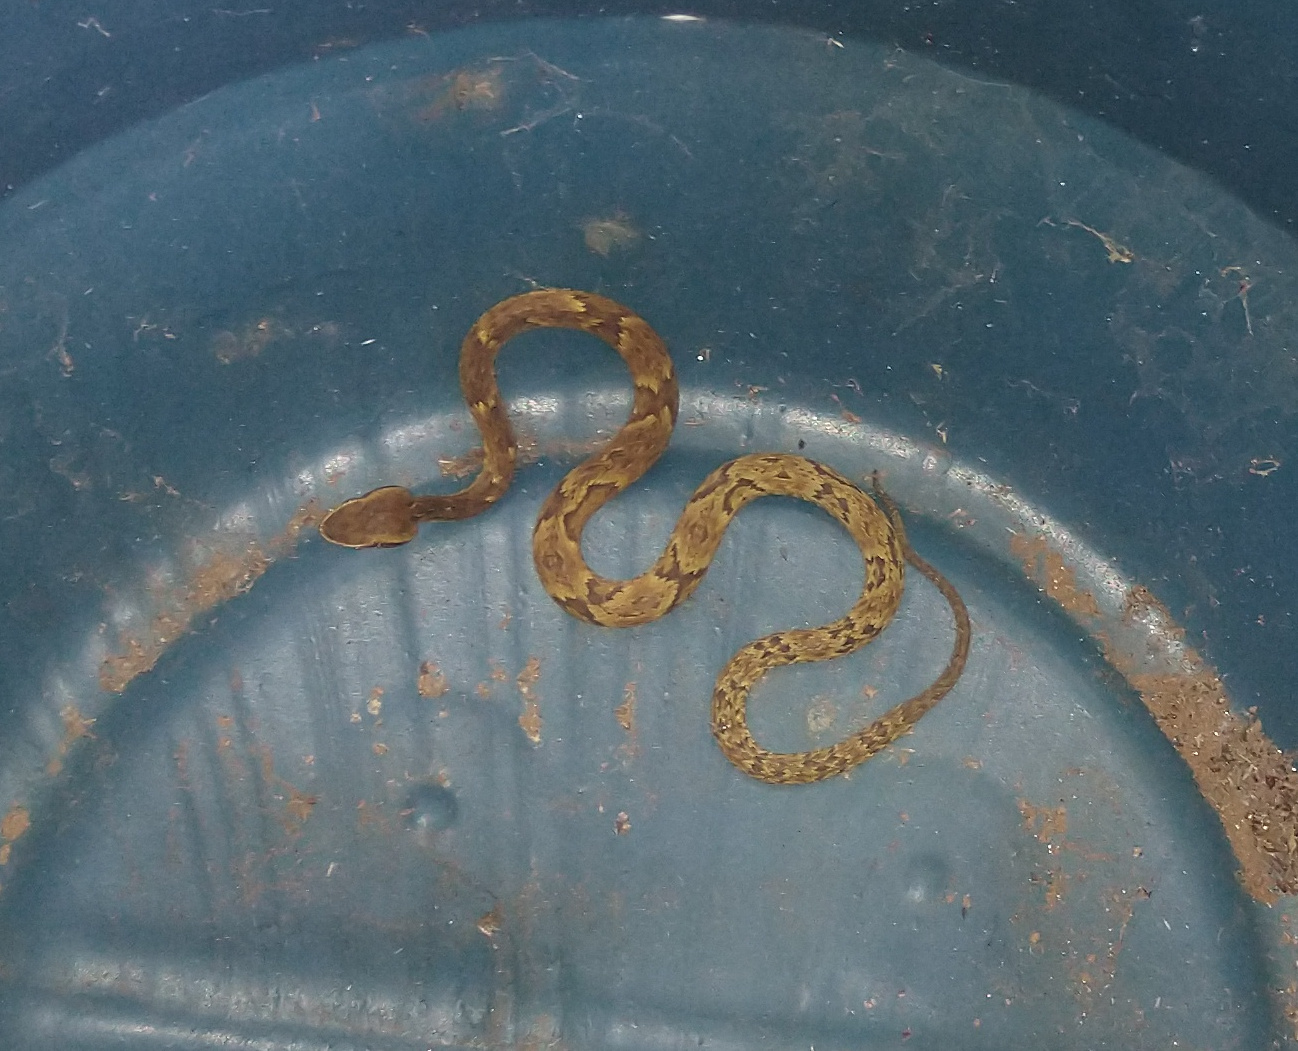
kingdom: Animalia
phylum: Chordata
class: Squamata
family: Viperidae
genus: Bothrops
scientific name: Bothrops jararaca
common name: Jararaca
